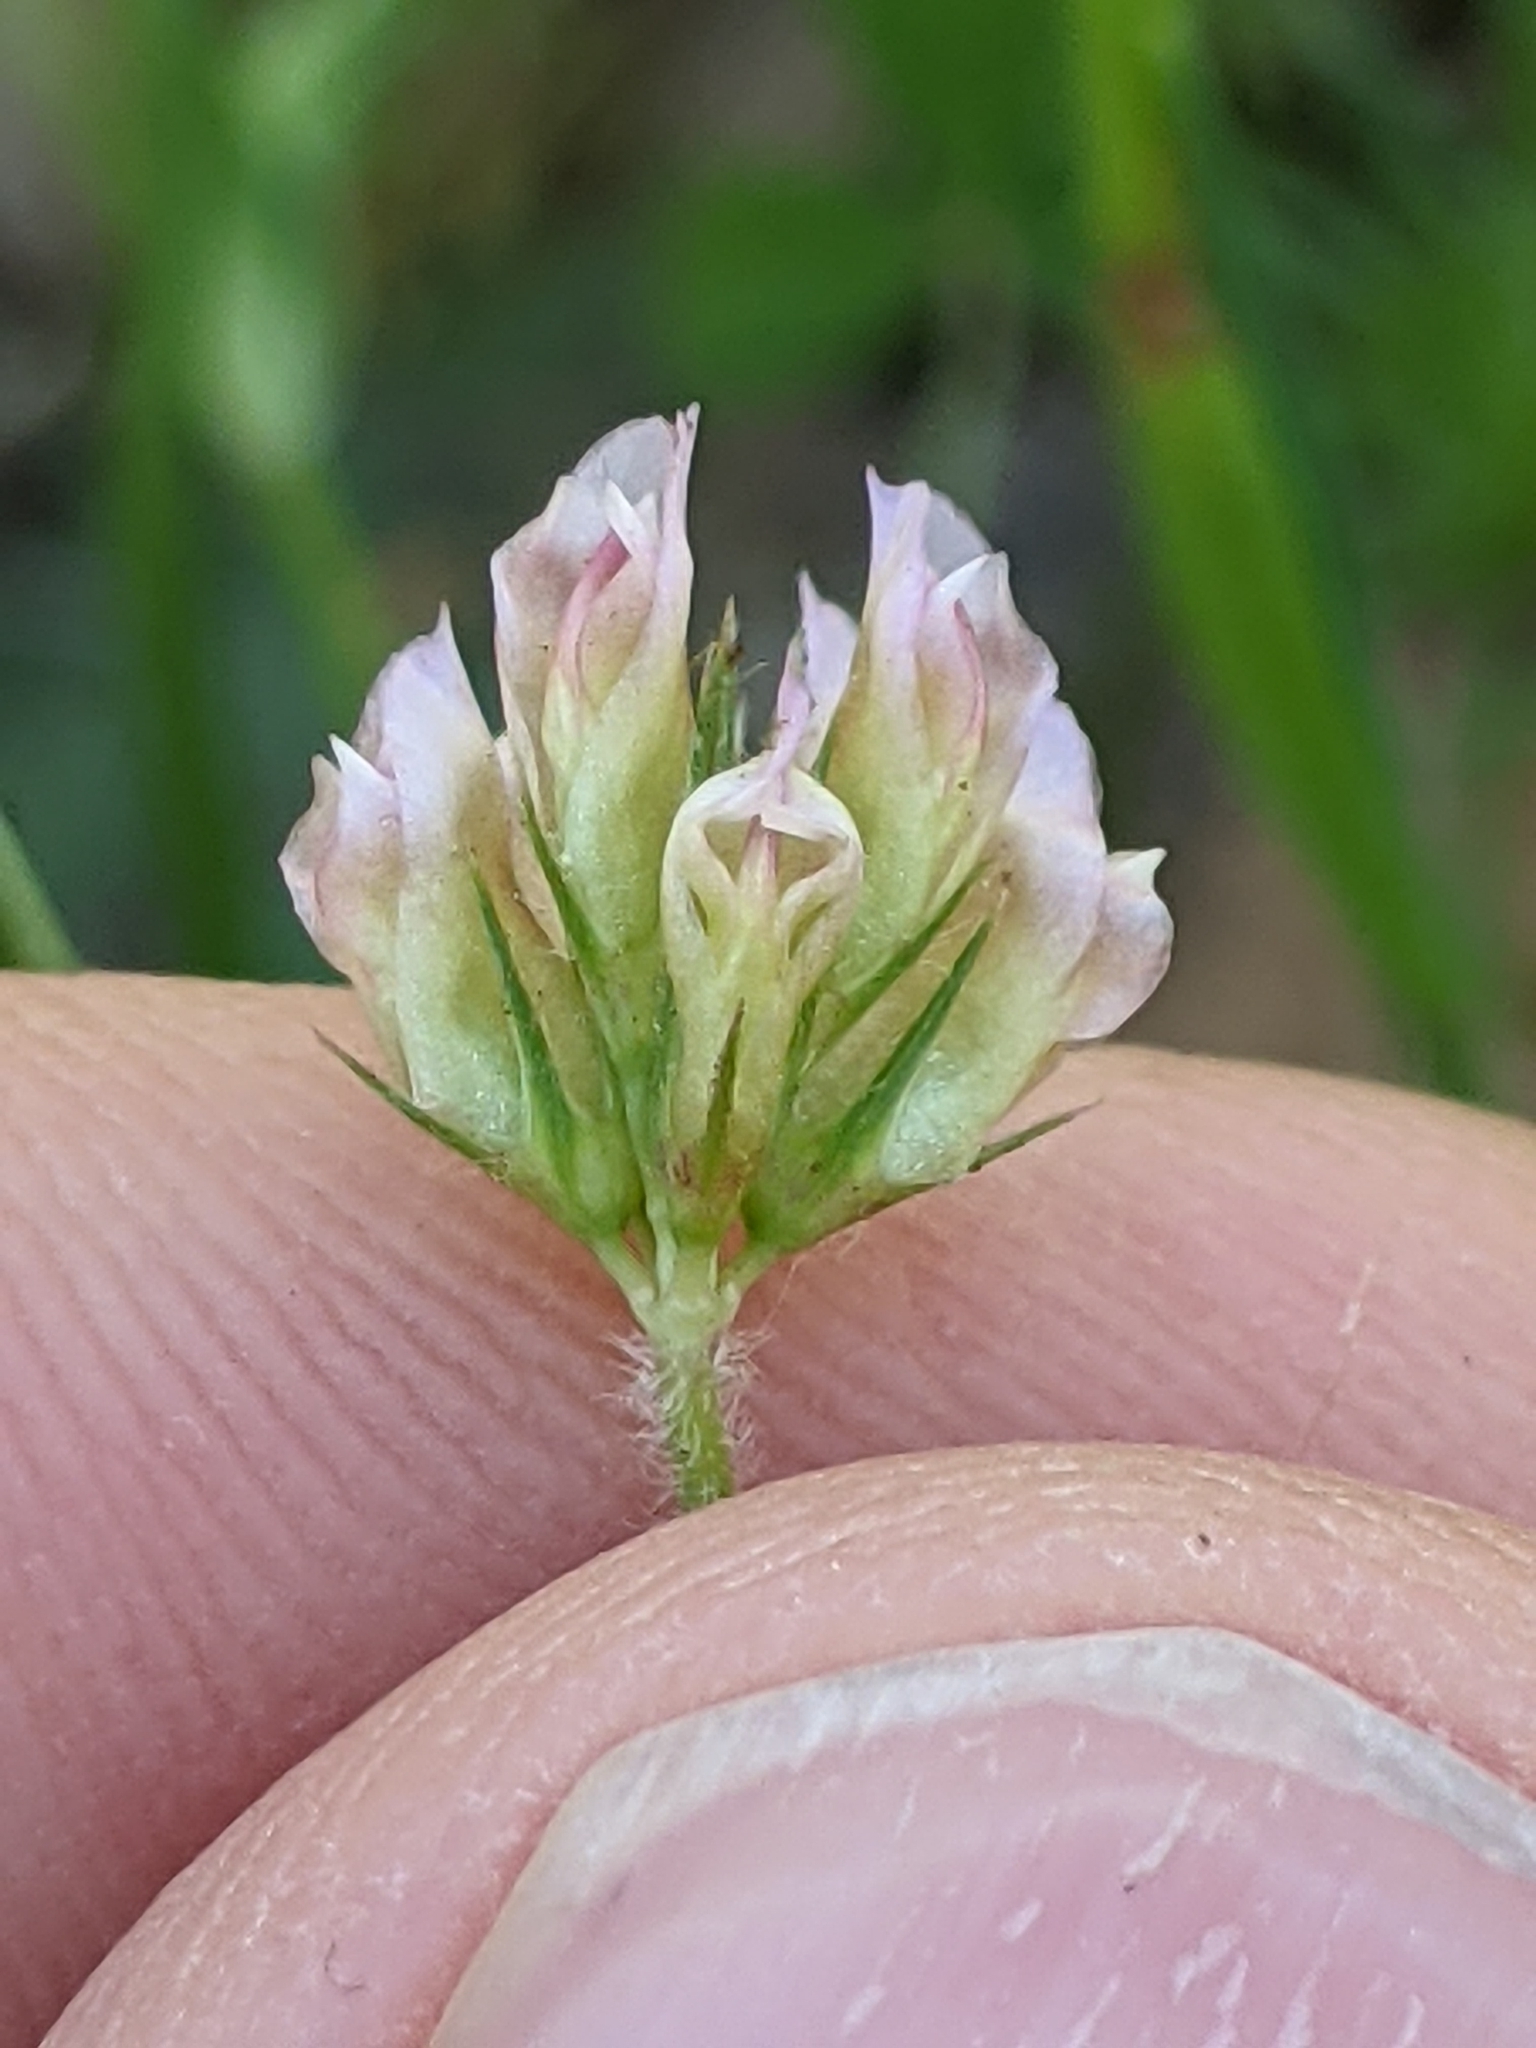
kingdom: Plantae
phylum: Tracheophyta
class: Magnoliopsida
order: Fabales
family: Fabaceae
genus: Trifolium
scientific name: Trifolium bifidum
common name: Notch-leaf clover
